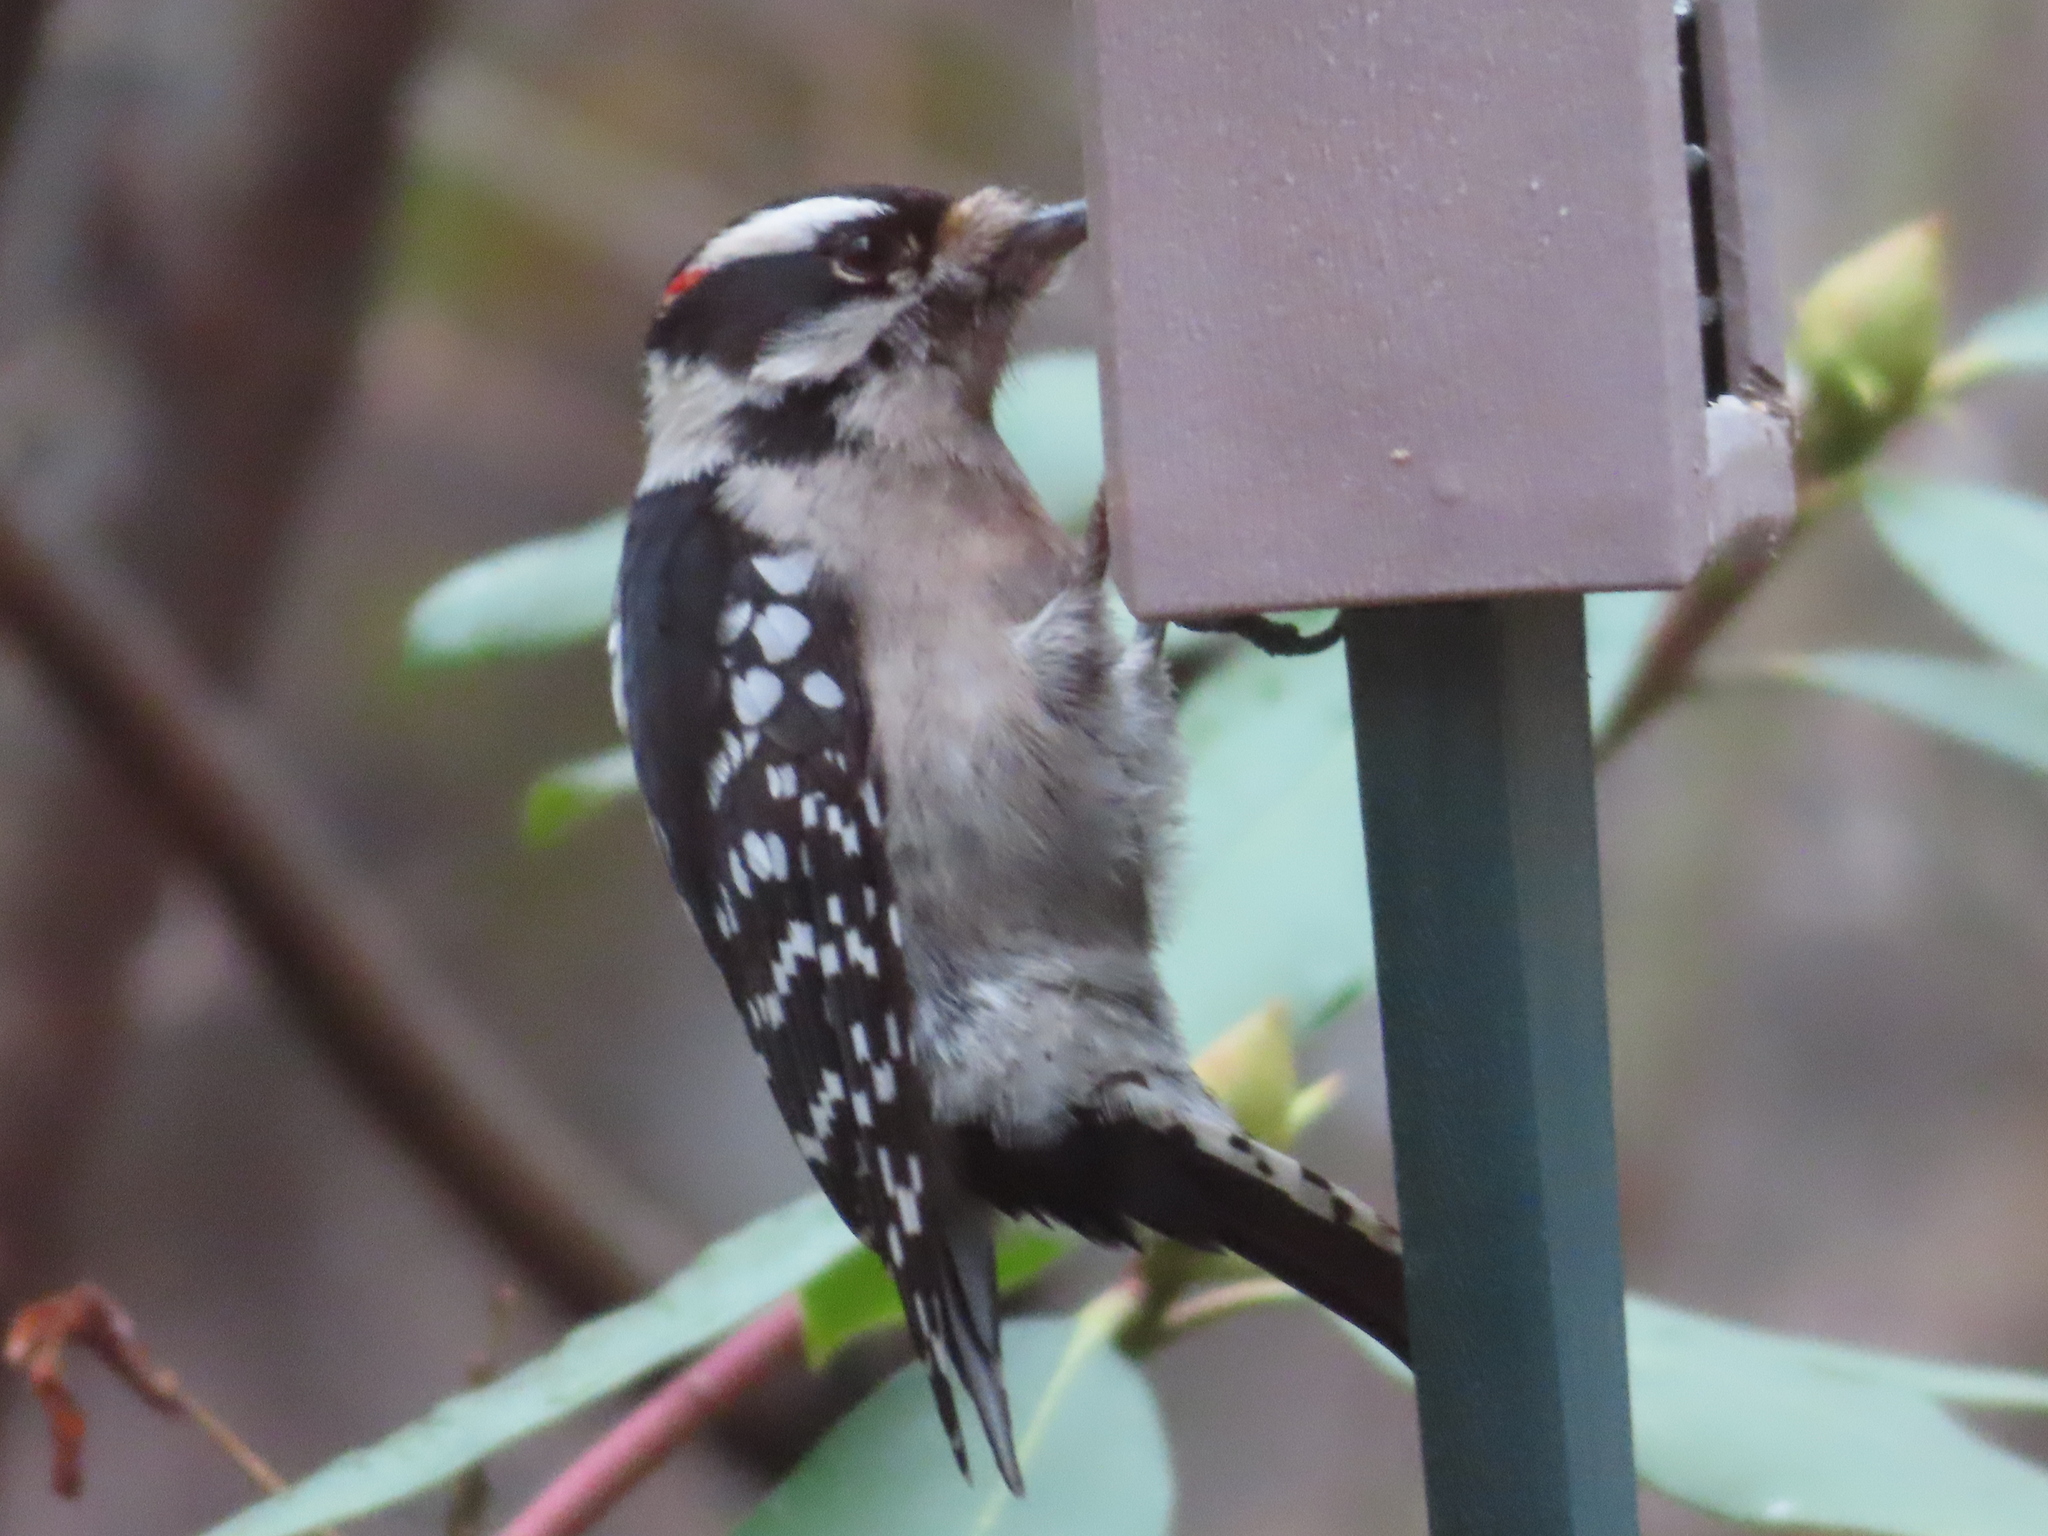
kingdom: Animalia
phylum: Chordata
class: Aves
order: Piciformes
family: Picidae
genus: Dryobates
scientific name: Dryobates pubescens
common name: Downy woodpecker
